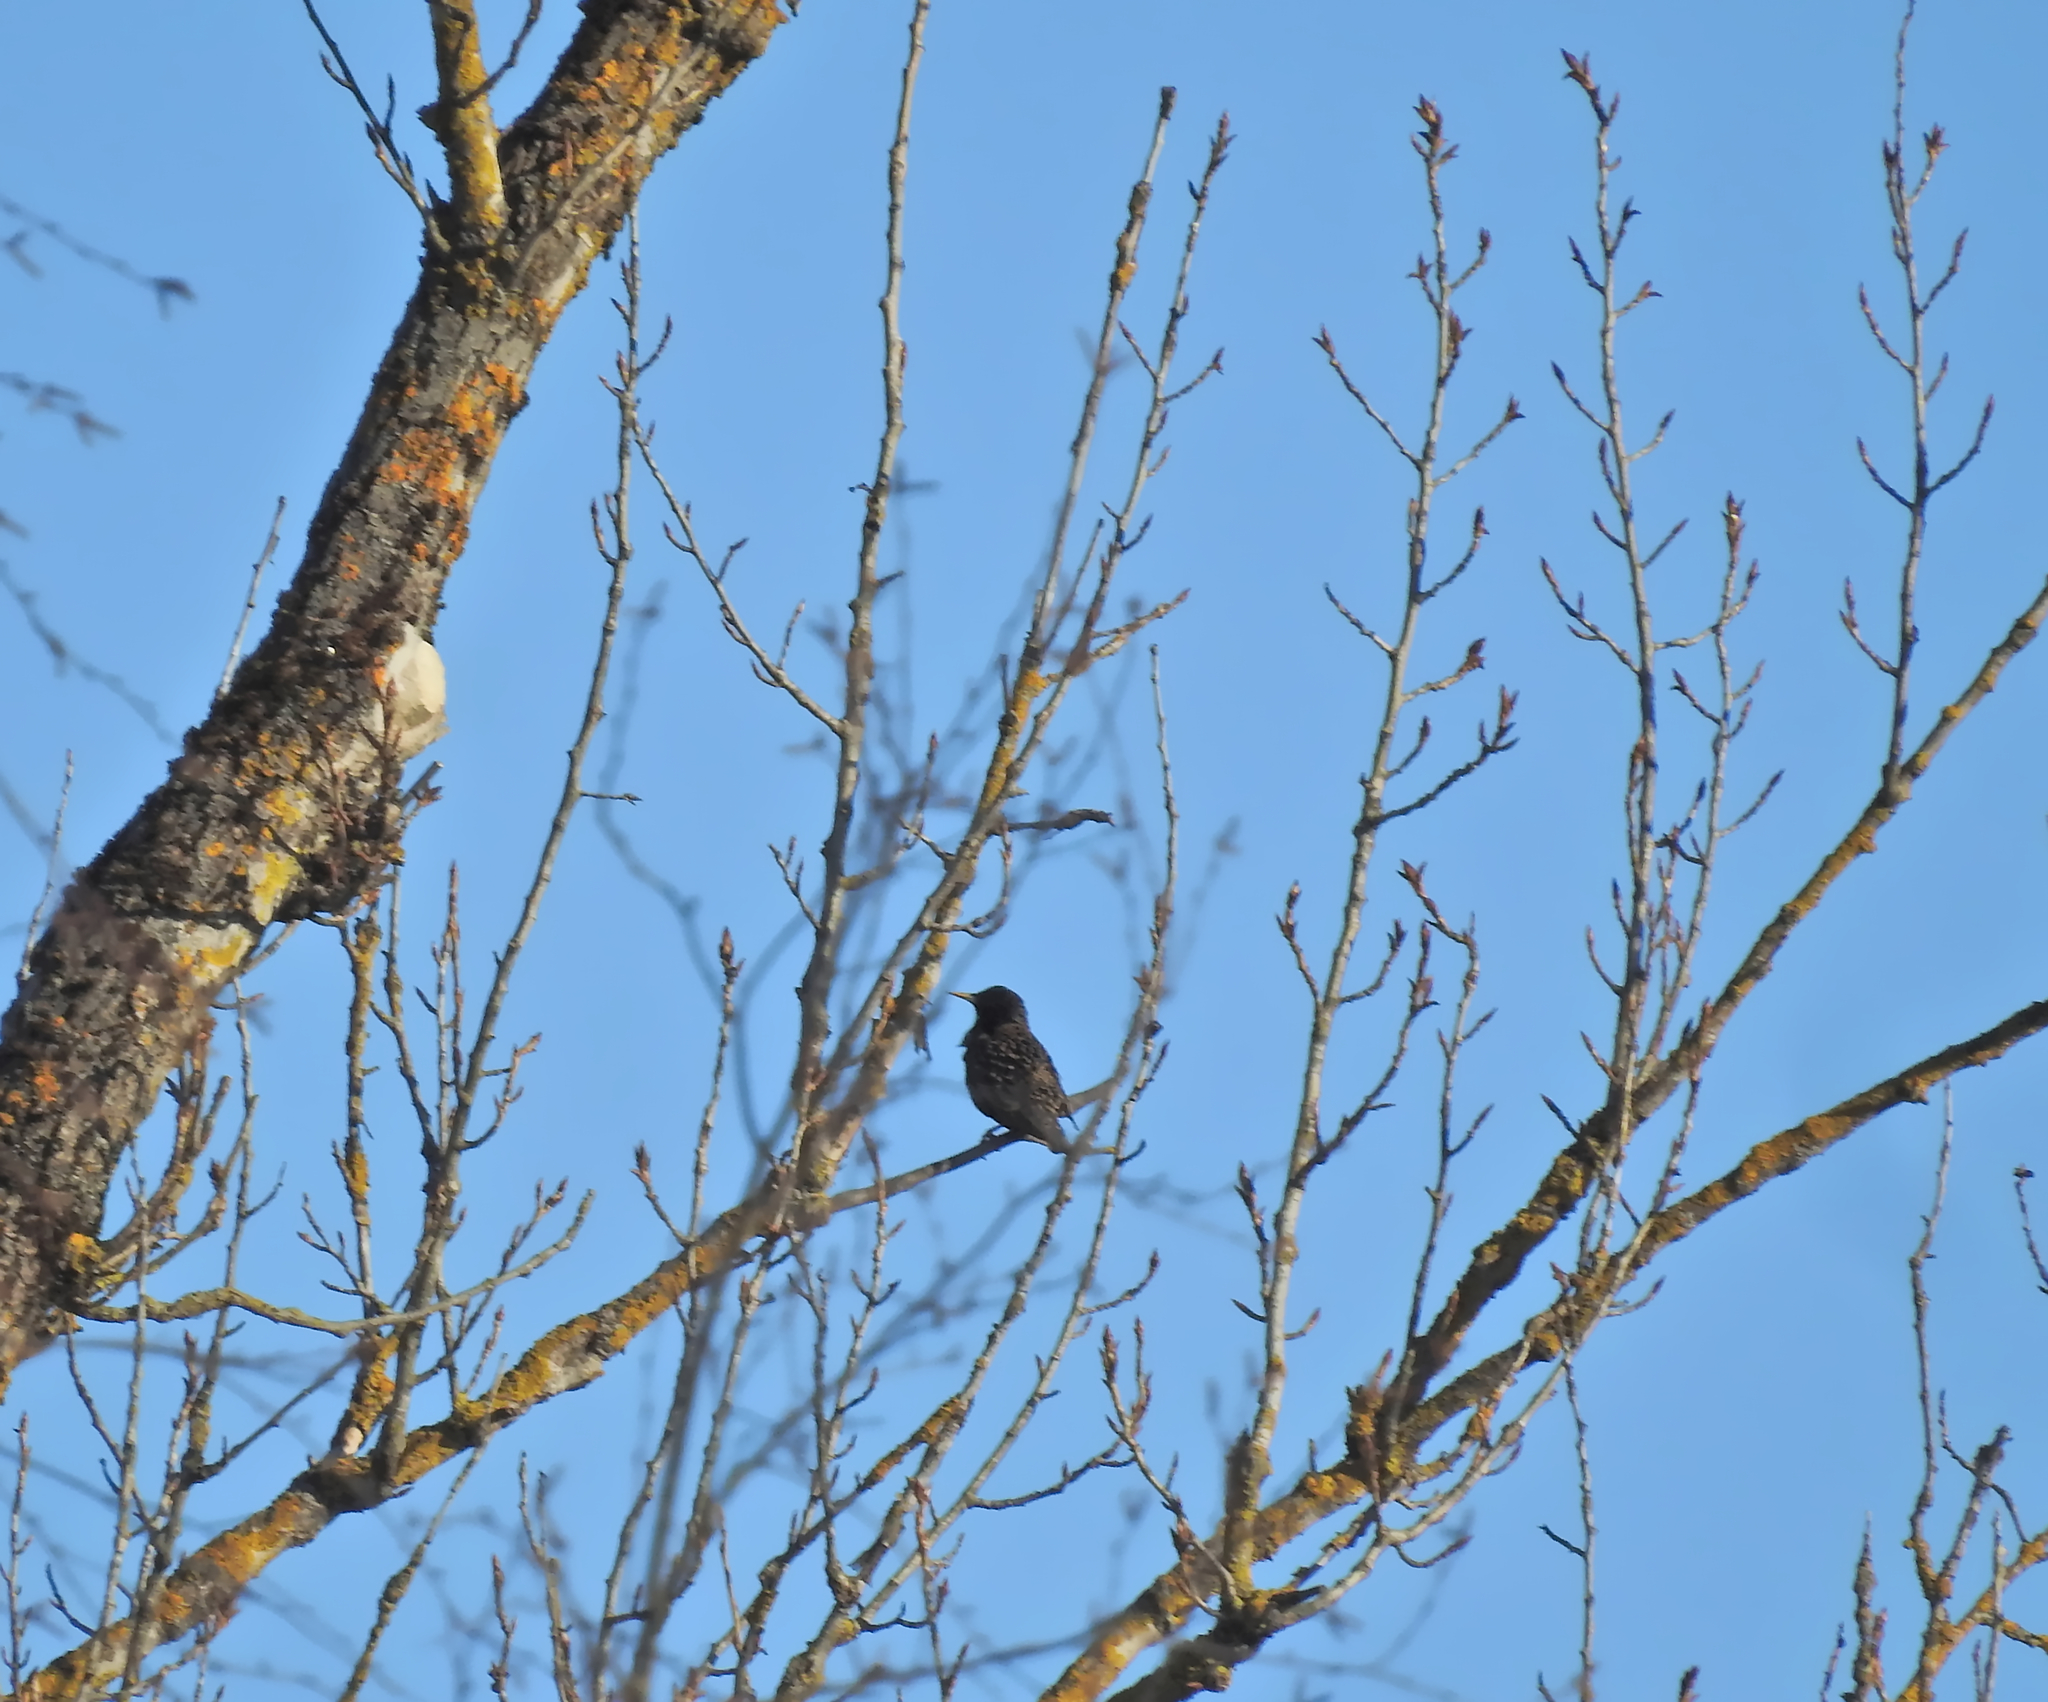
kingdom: Animalia
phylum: Chordata
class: Aves
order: Passeriformes
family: Sturnidae
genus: Sturnus
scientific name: Sturnus vulgaris
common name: Common starling
